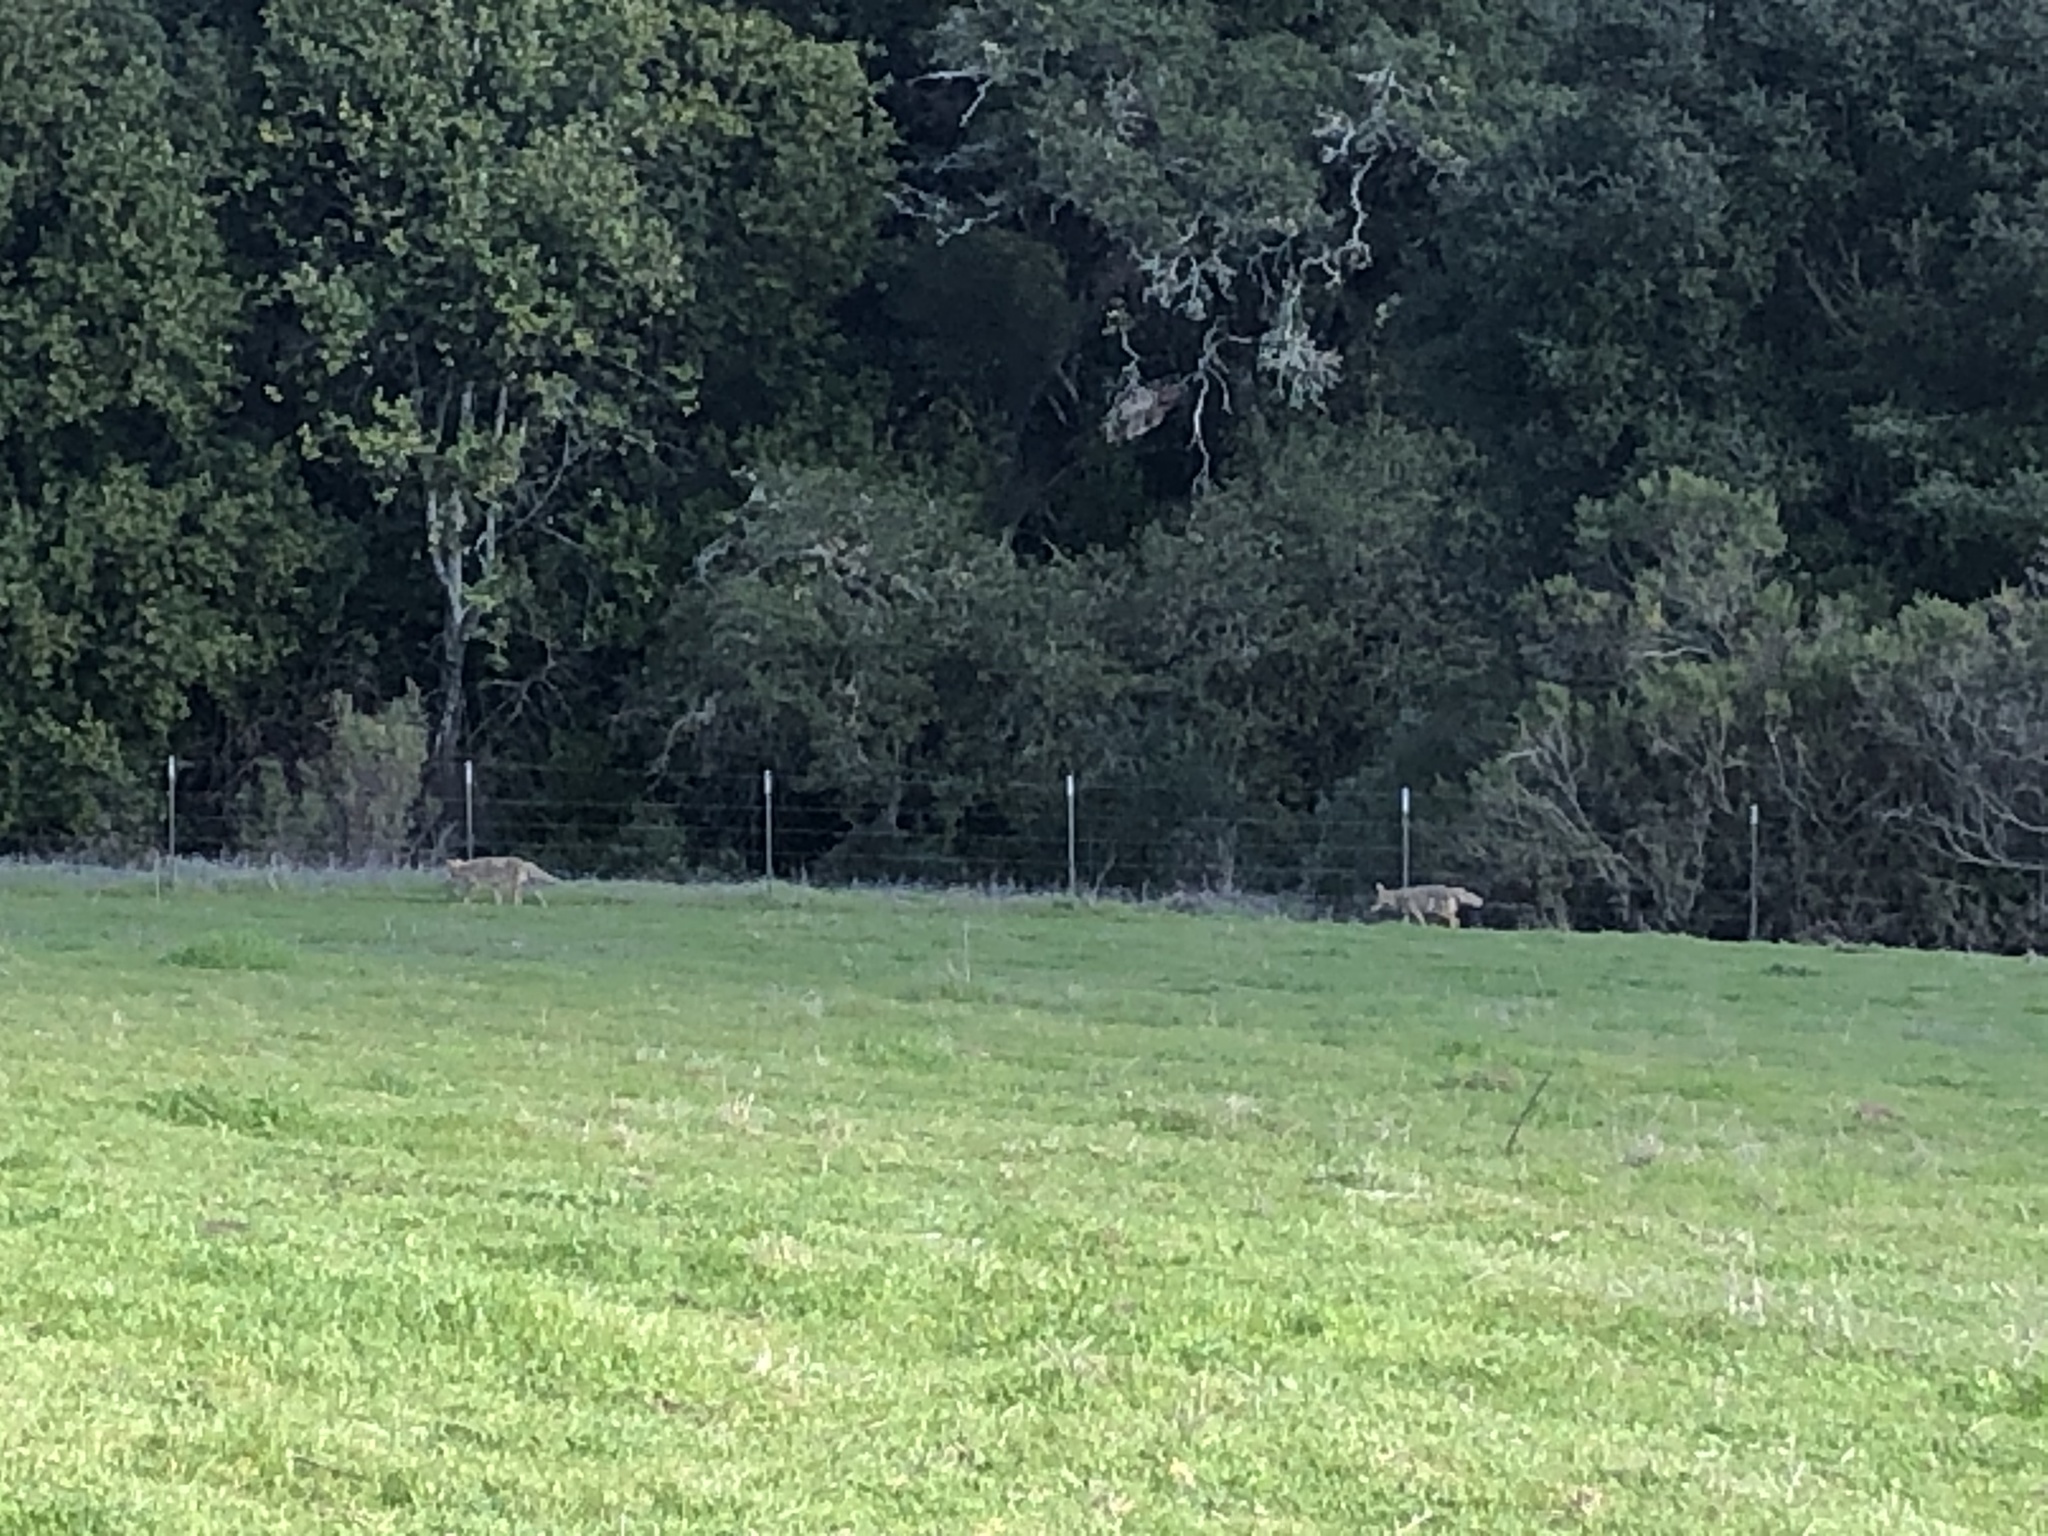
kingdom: Animalia
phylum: Chordata
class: Mammalia
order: Carnivora
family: Canidae
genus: Canis
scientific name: Canis latrans
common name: Coyote
